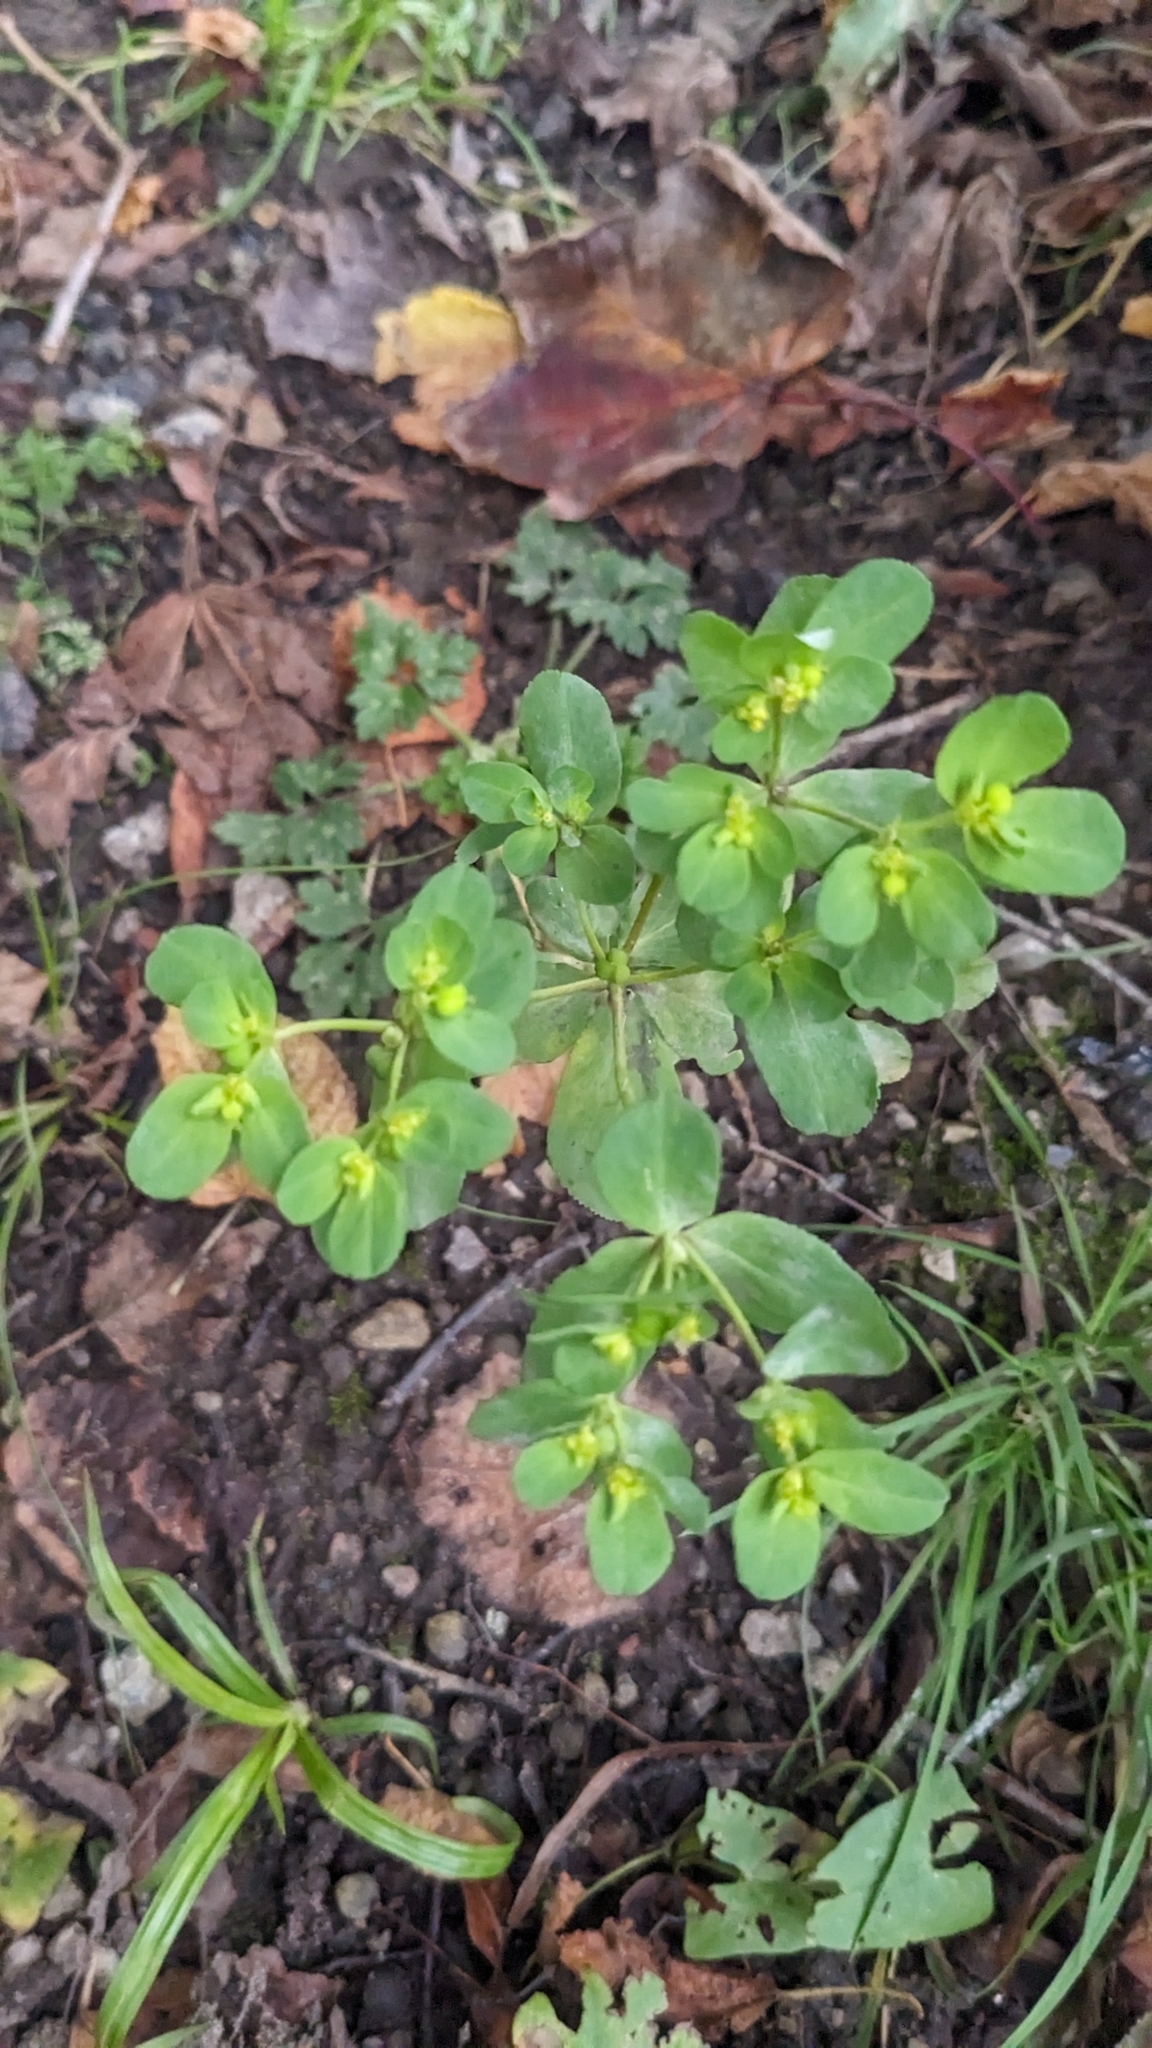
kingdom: Plantae
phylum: Tracheophyta
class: Magnoliopsida
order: Malpighiales
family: Euphorbiaceae
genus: Euphorbia
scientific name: Euphorbia helioscopia
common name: Sun spurge
